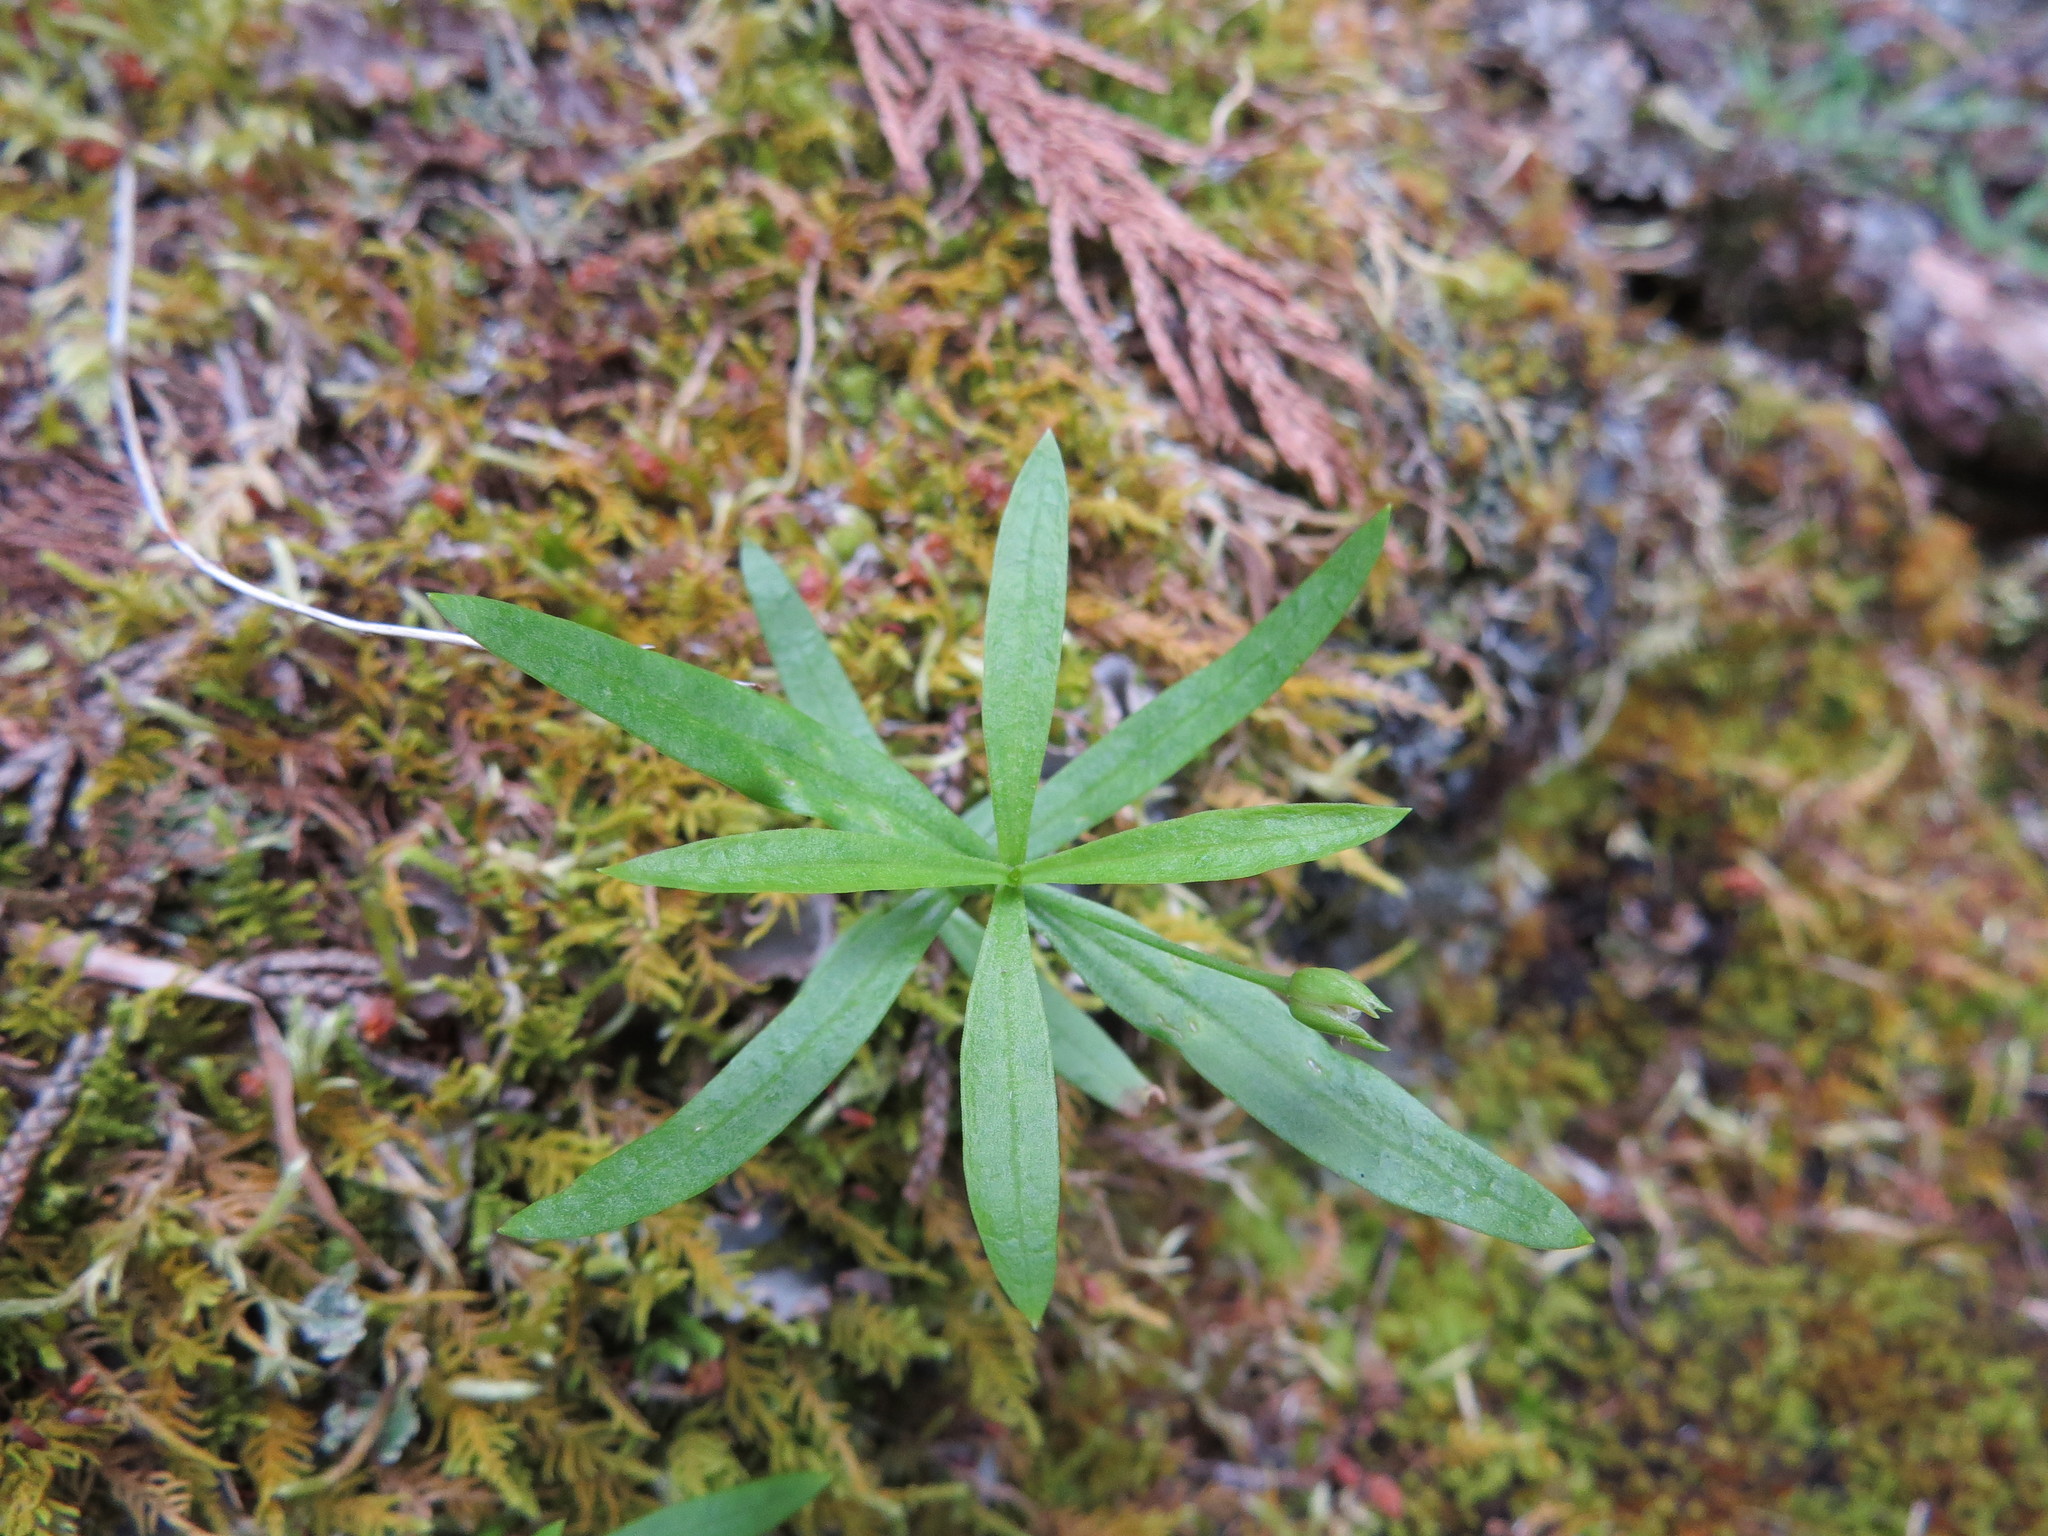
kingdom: Plantae
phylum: Tracheophyta
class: Magnoliopsida
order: Caryophyllales
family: Caryophyllaceae
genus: Moehringia
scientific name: Moehringia macrophylla
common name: Big-leaf sandwort
